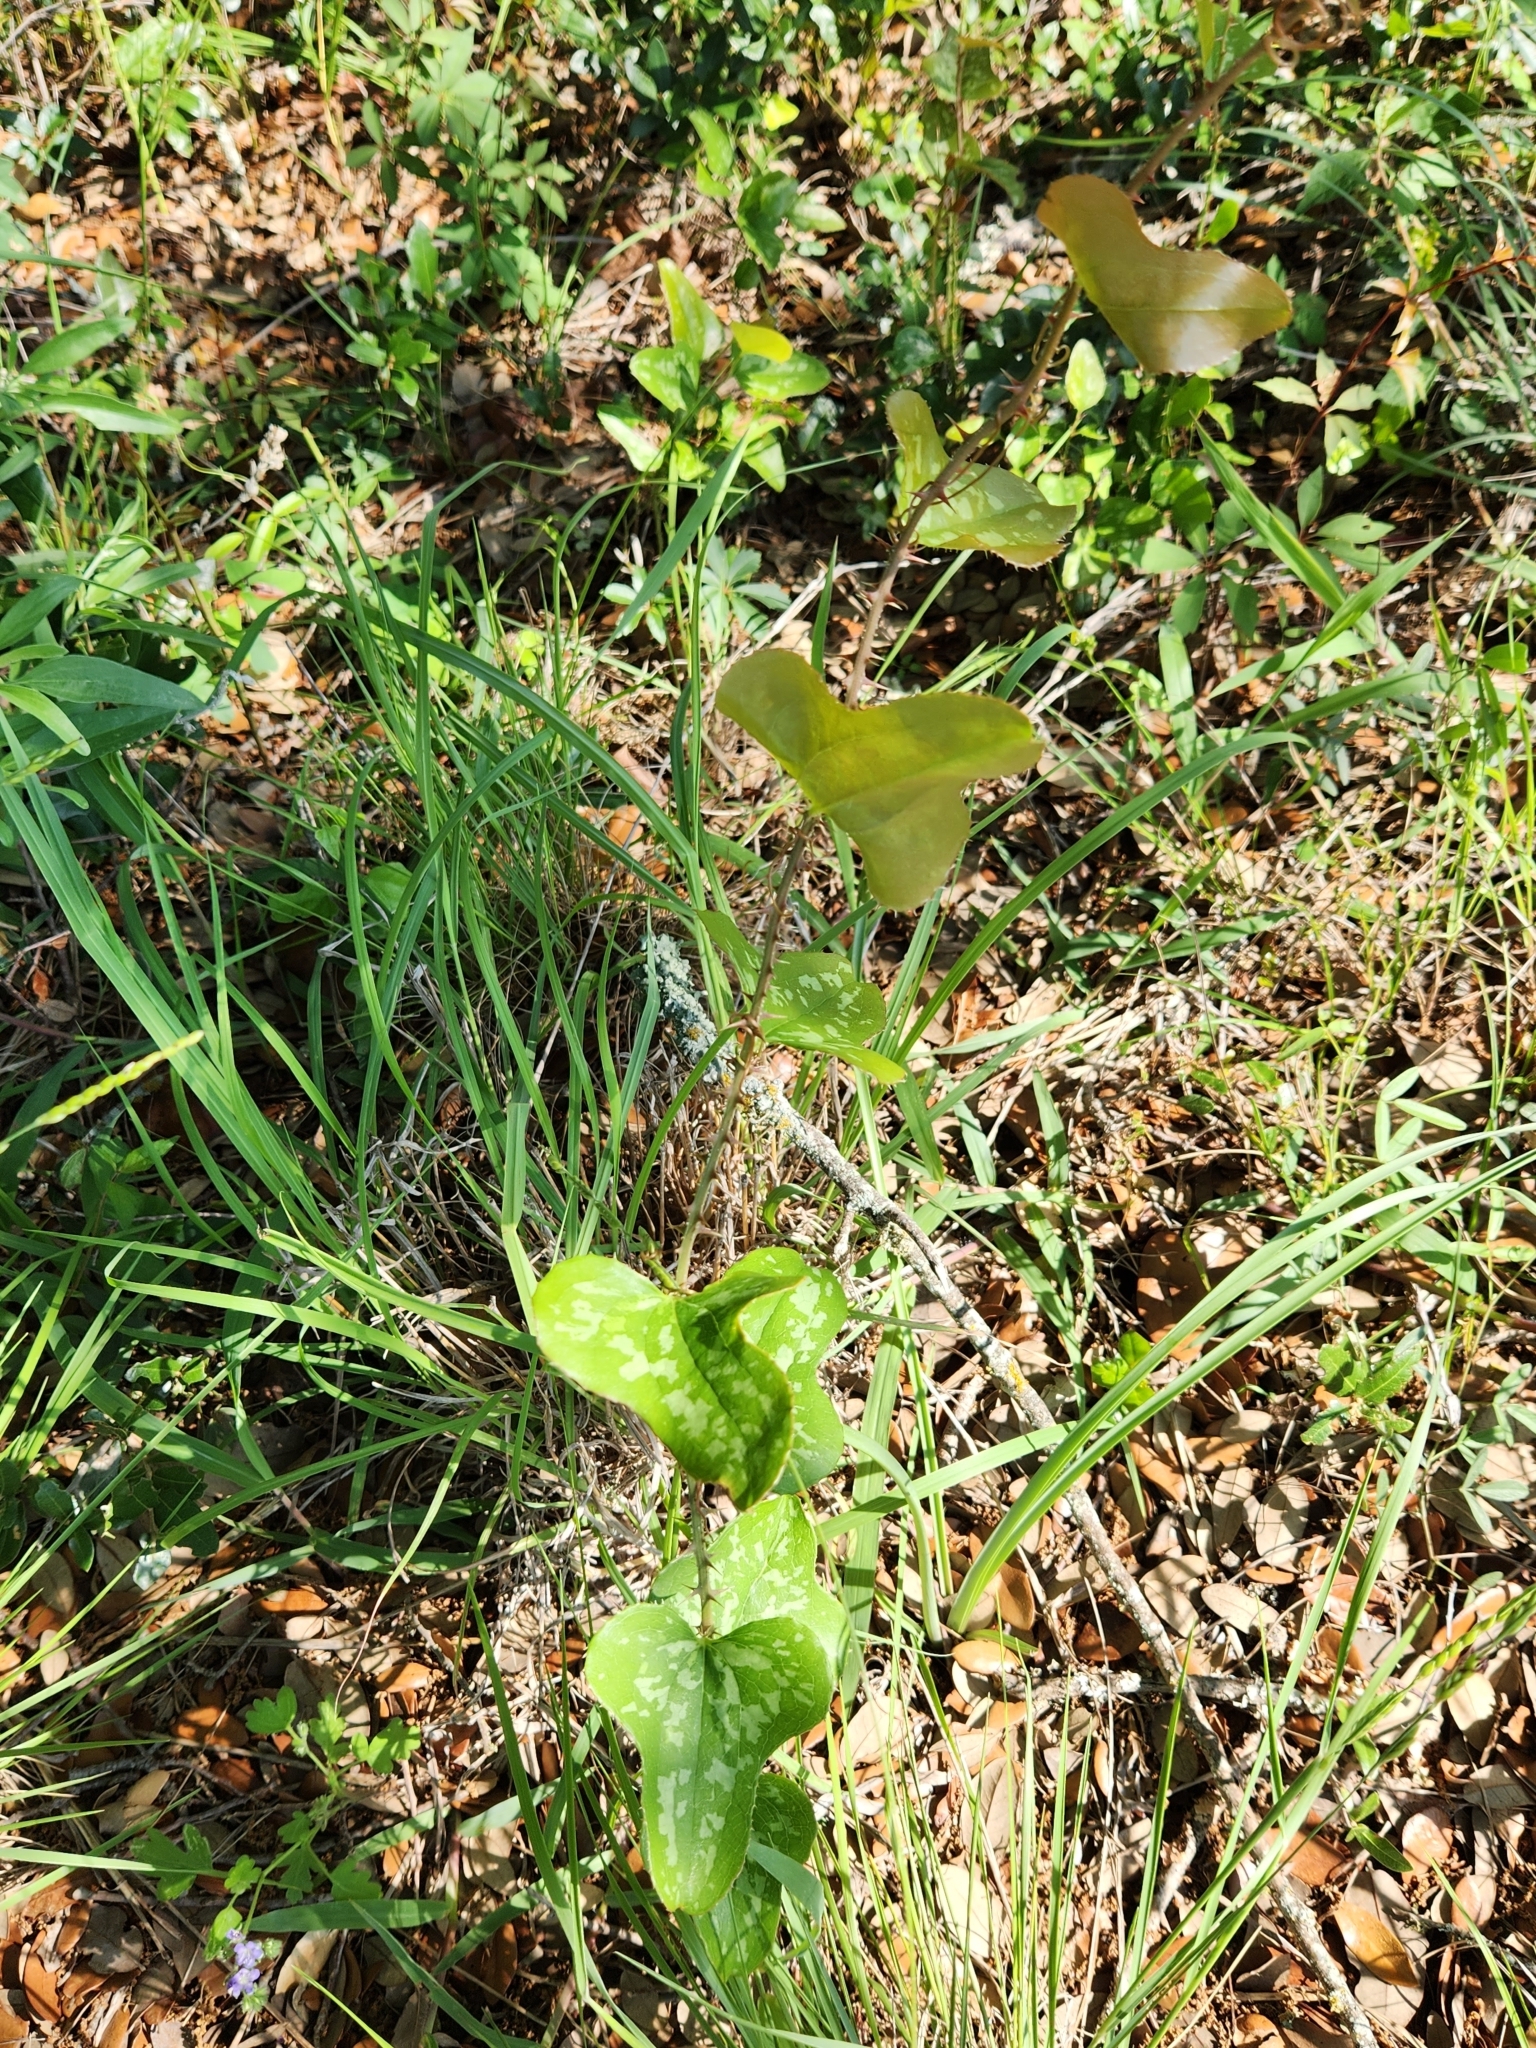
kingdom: Plantae
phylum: Tracheophyta
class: Liliopsida
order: Liliales
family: Smilacaceae
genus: Smilax
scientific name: Smilax bona-nox
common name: Catbrier
